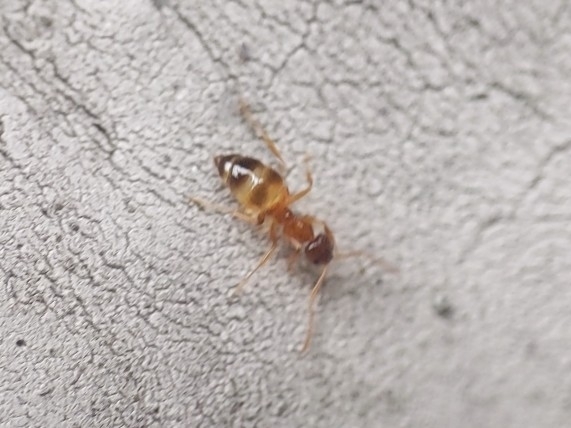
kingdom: Animalia
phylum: Arthropoda
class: Insecta
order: Hymenoptera
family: Formicidae
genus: Paratrechina
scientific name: Paratrechina flavipes
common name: Eastern asian formicine ant
